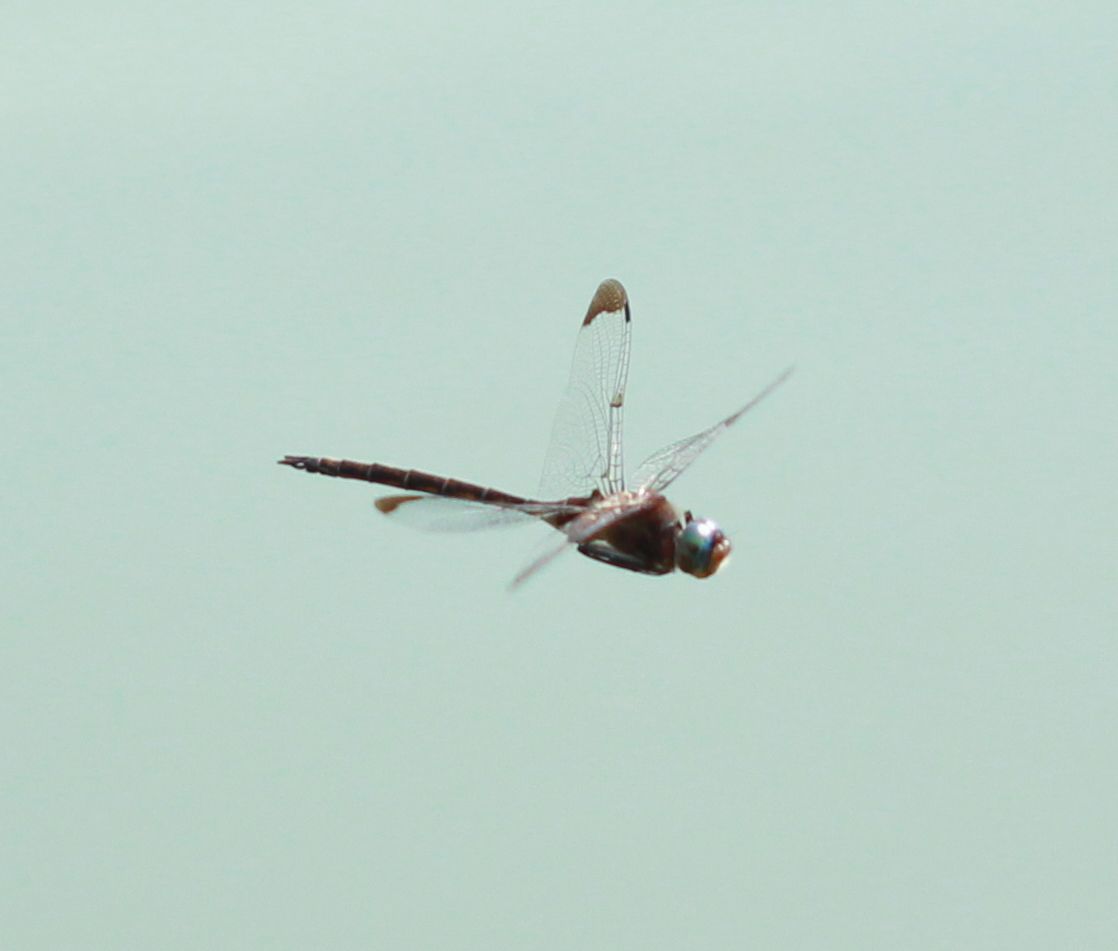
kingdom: Animalia
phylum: Arthropoda
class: Insecta
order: Odonata
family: Corduliidae
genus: Epitheca
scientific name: Epitheca princeps
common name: Prince baskettail
